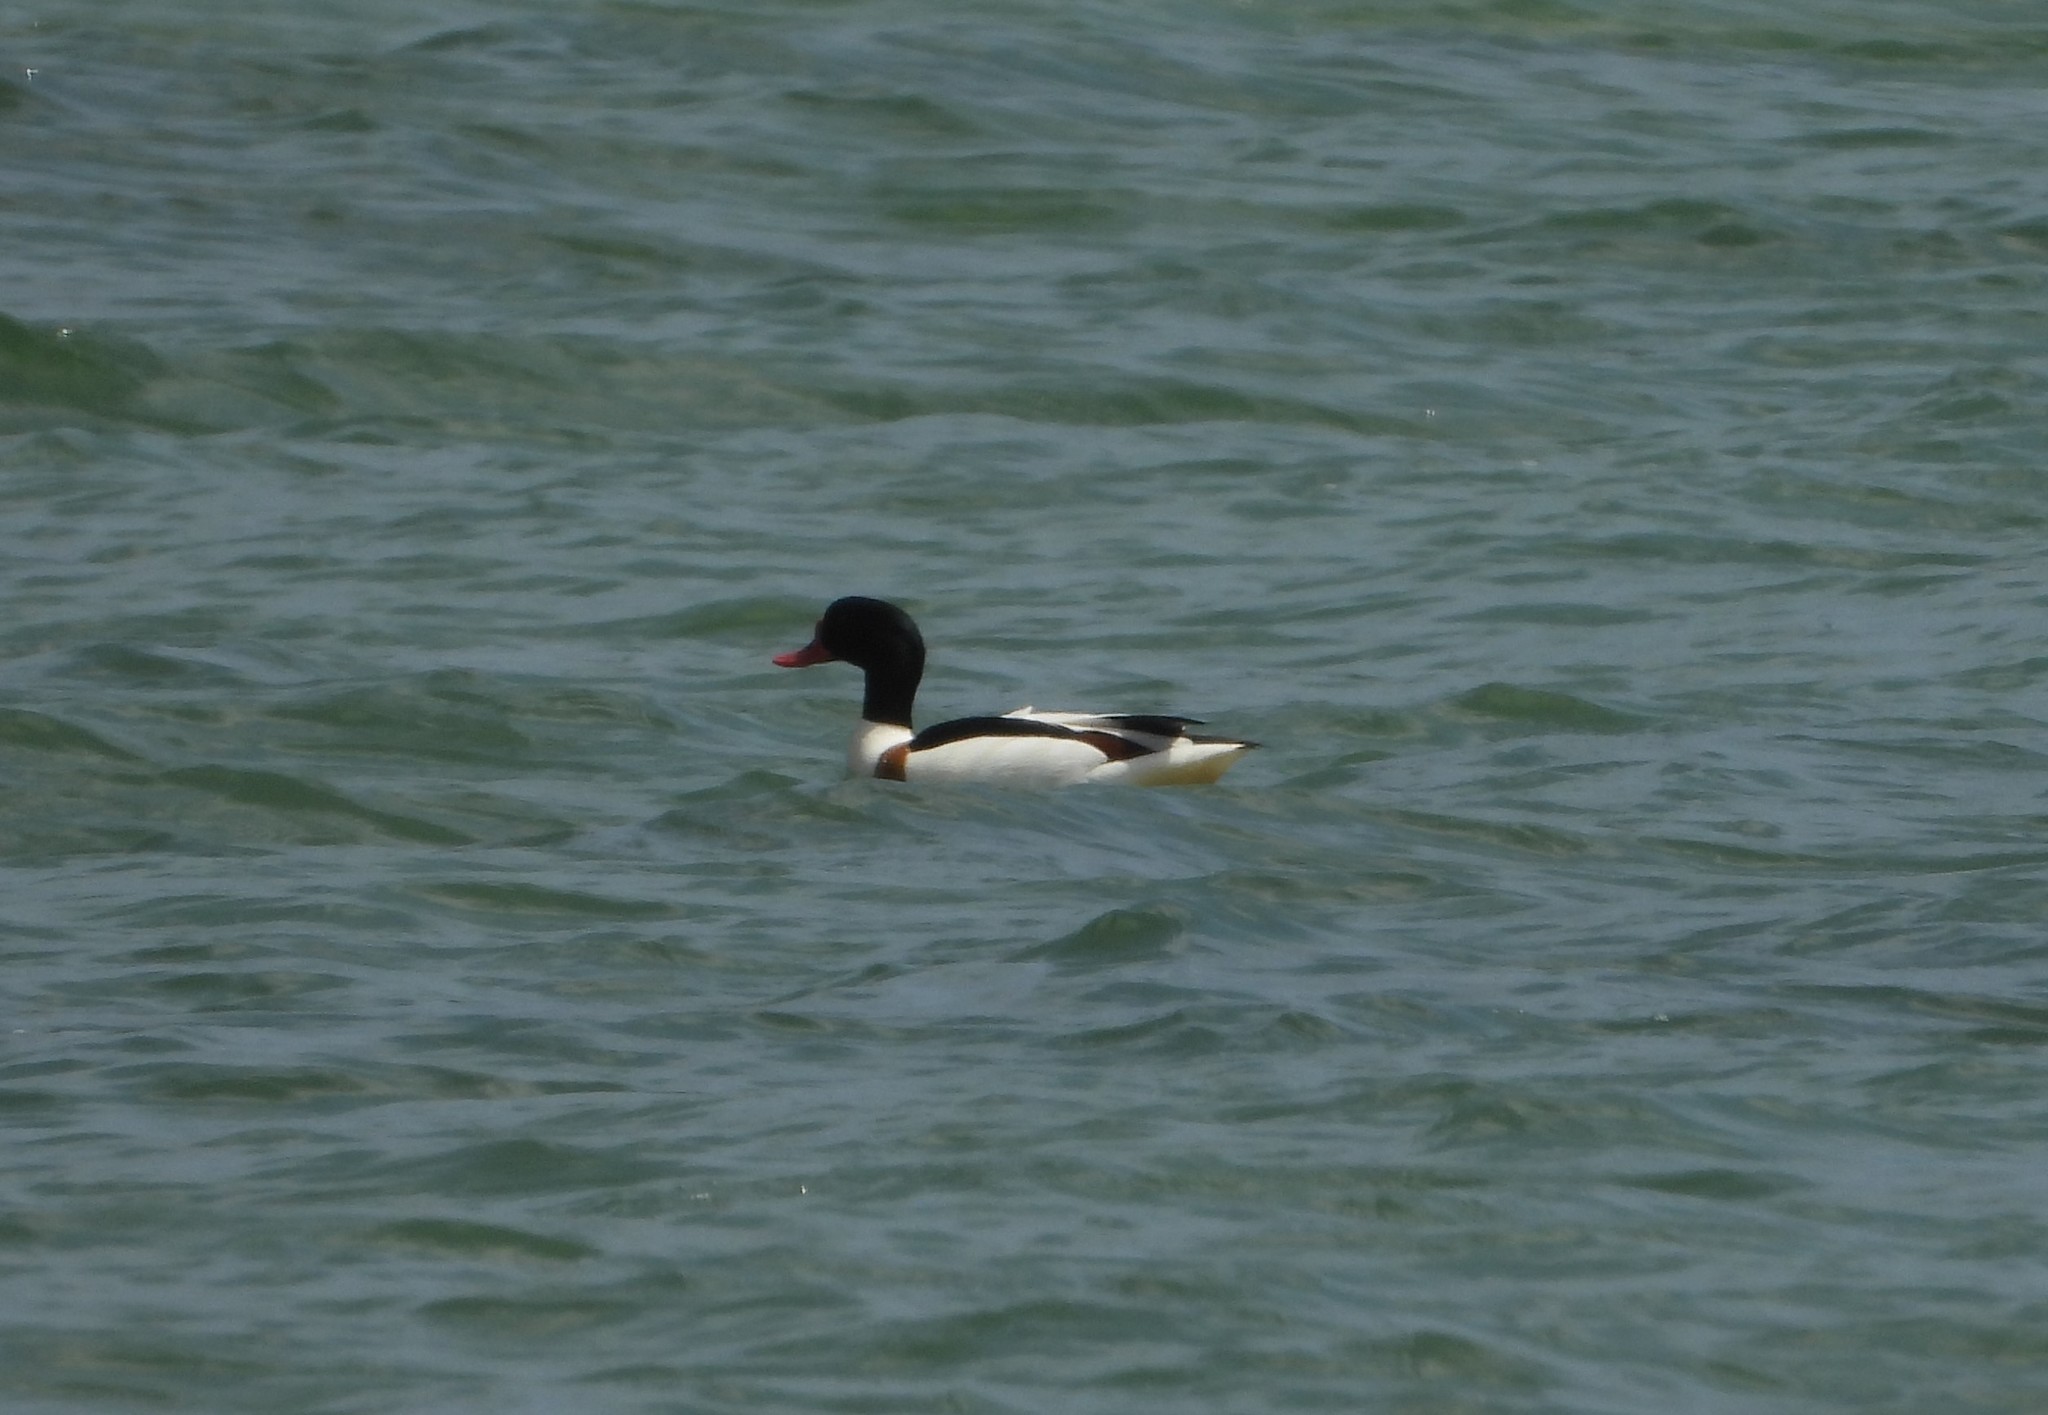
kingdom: Animalia
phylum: Chordata
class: Aves
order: Anseriformes
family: Anatidae
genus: Tadorna
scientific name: Tadorna tadorna
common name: Common shelduck
